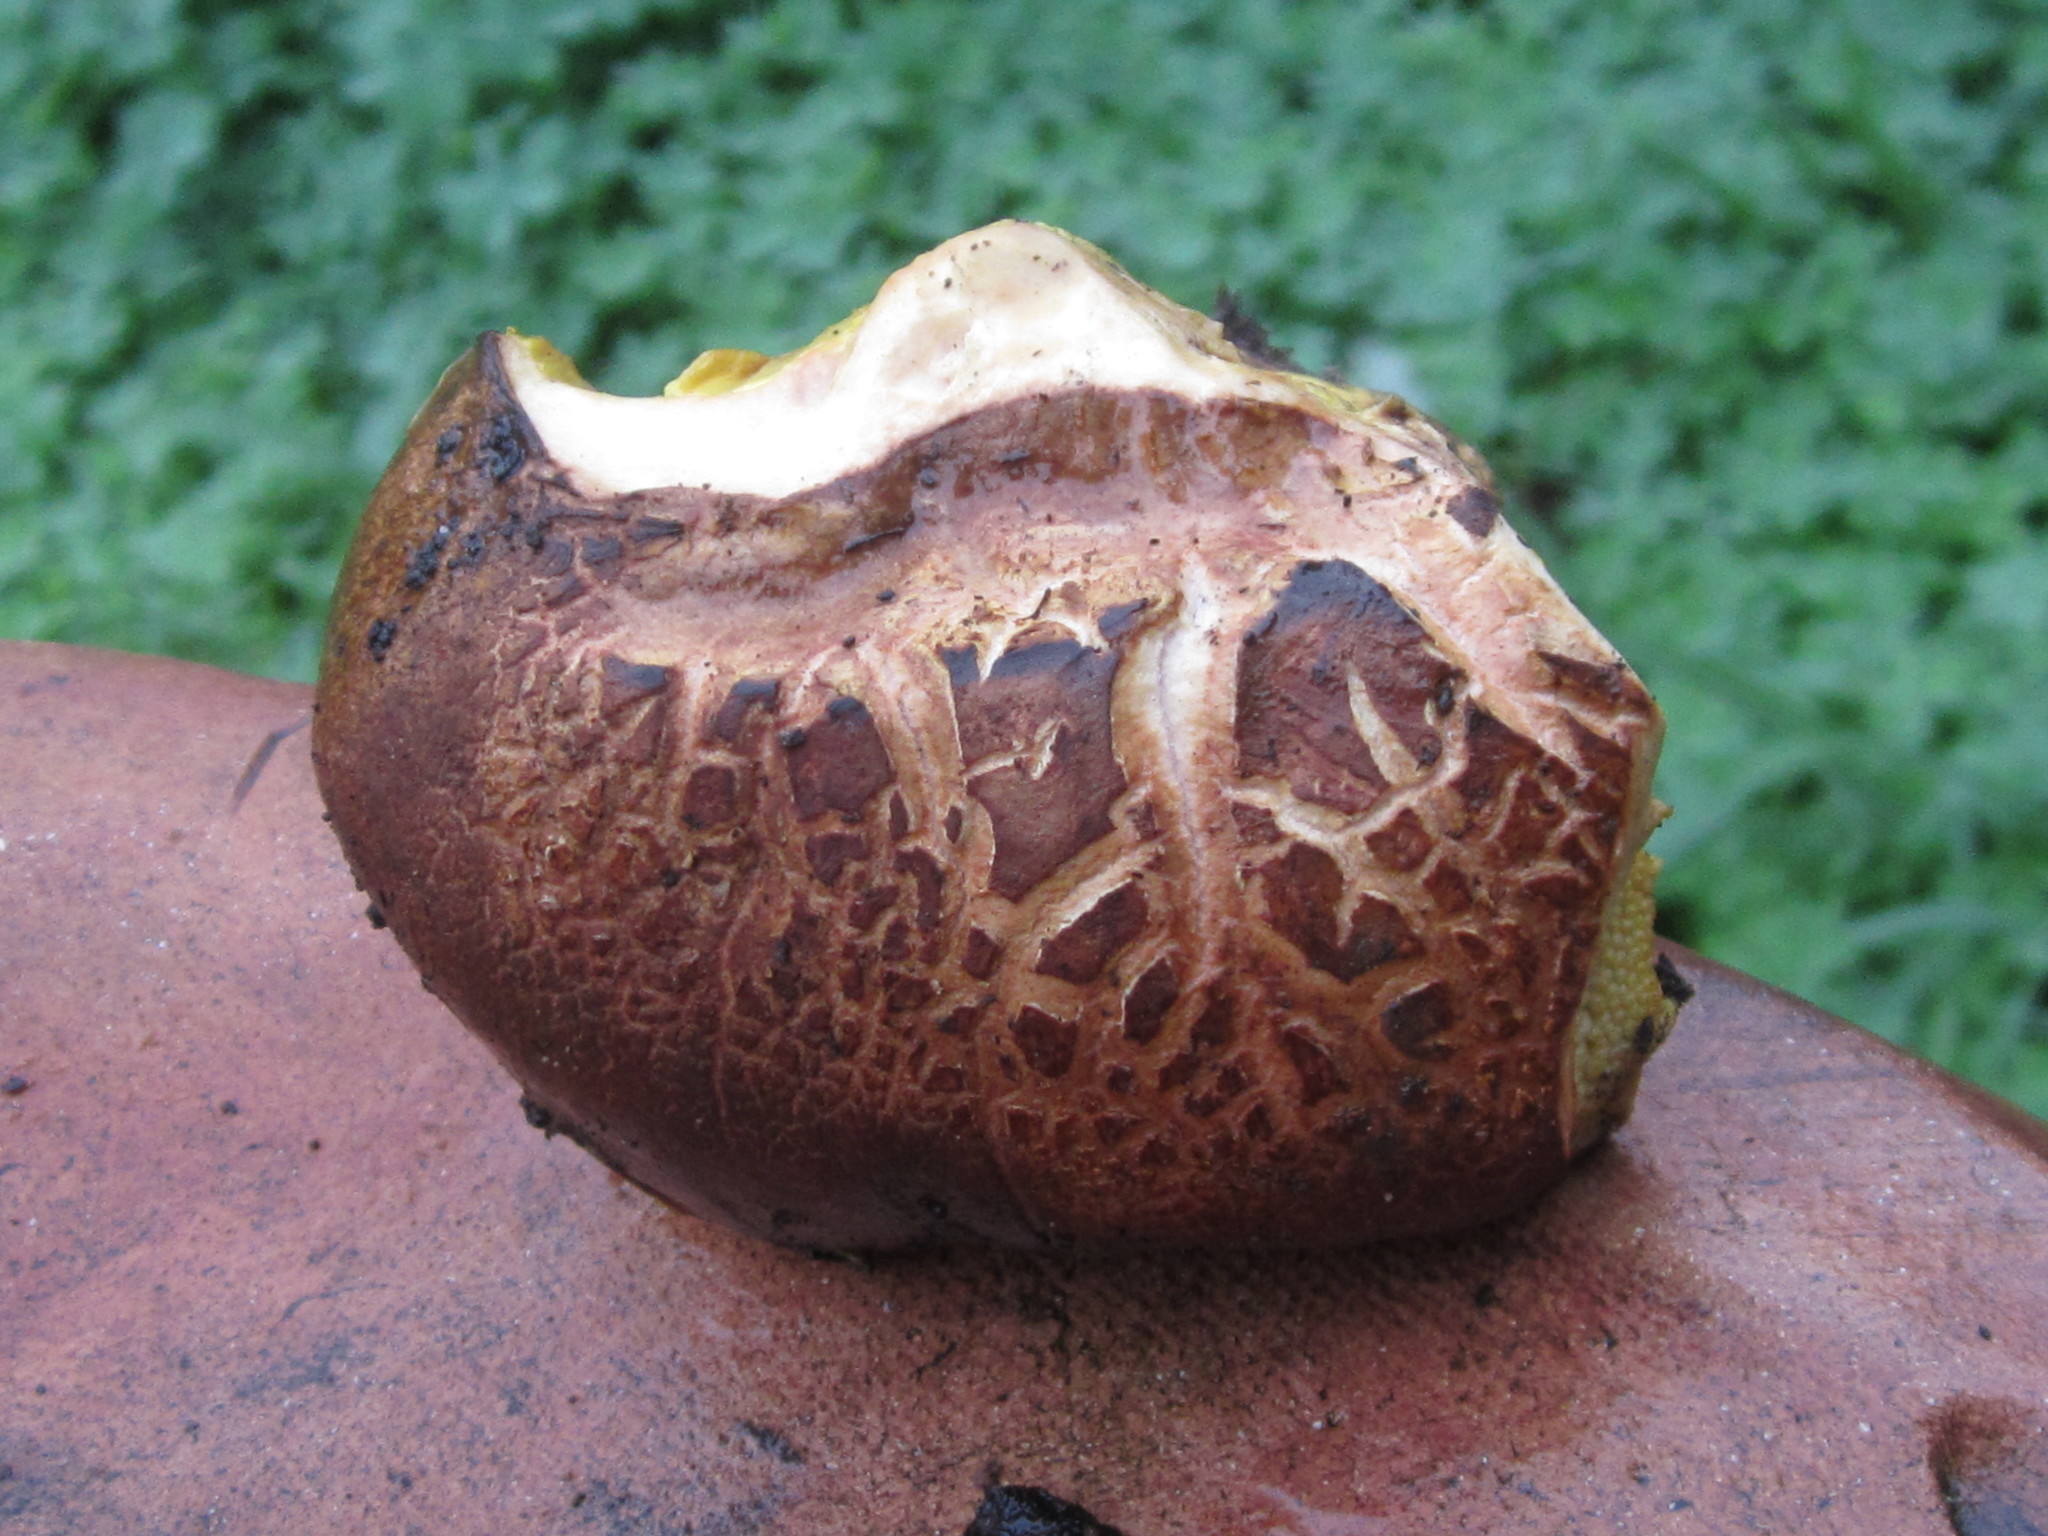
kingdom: Fungi
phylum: Basidiomycota
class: Agaricomycetes
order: Boletales
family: Boletaceae
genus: Aureoboletus
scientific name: Aureoboletus citriniporus
